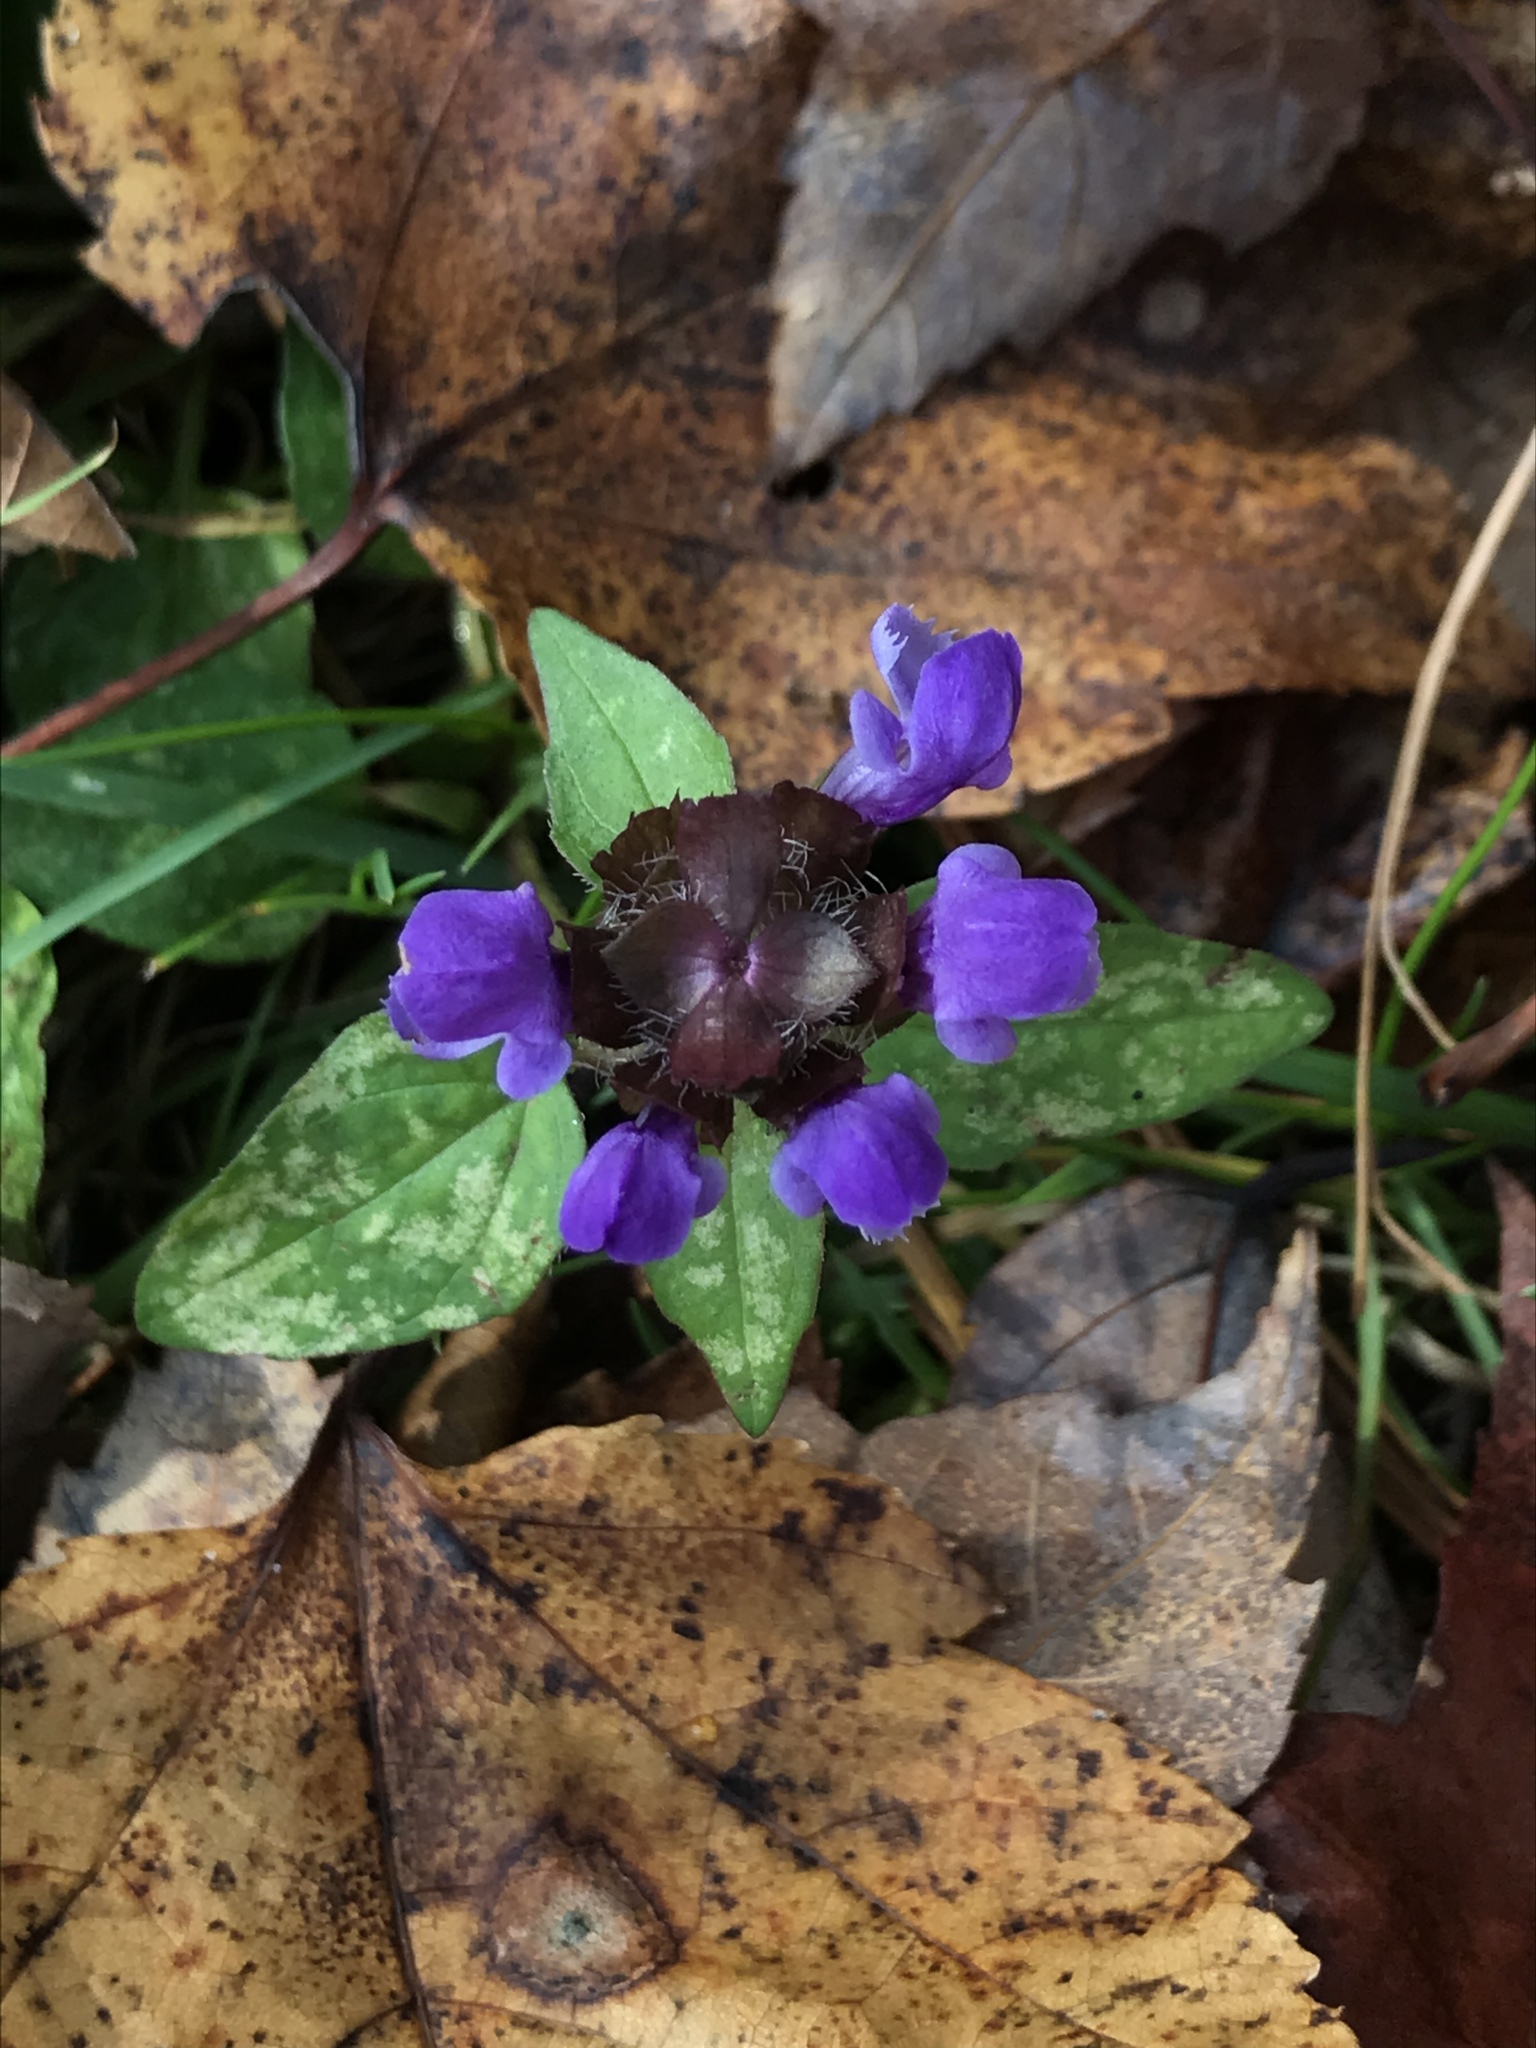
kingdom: Plantae
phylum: Tracheophyta
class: Magnoliopsida
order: Lamiales
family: Lamiaceae
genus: Prunella
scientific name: Prunella vulgaris
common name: Heal-all
